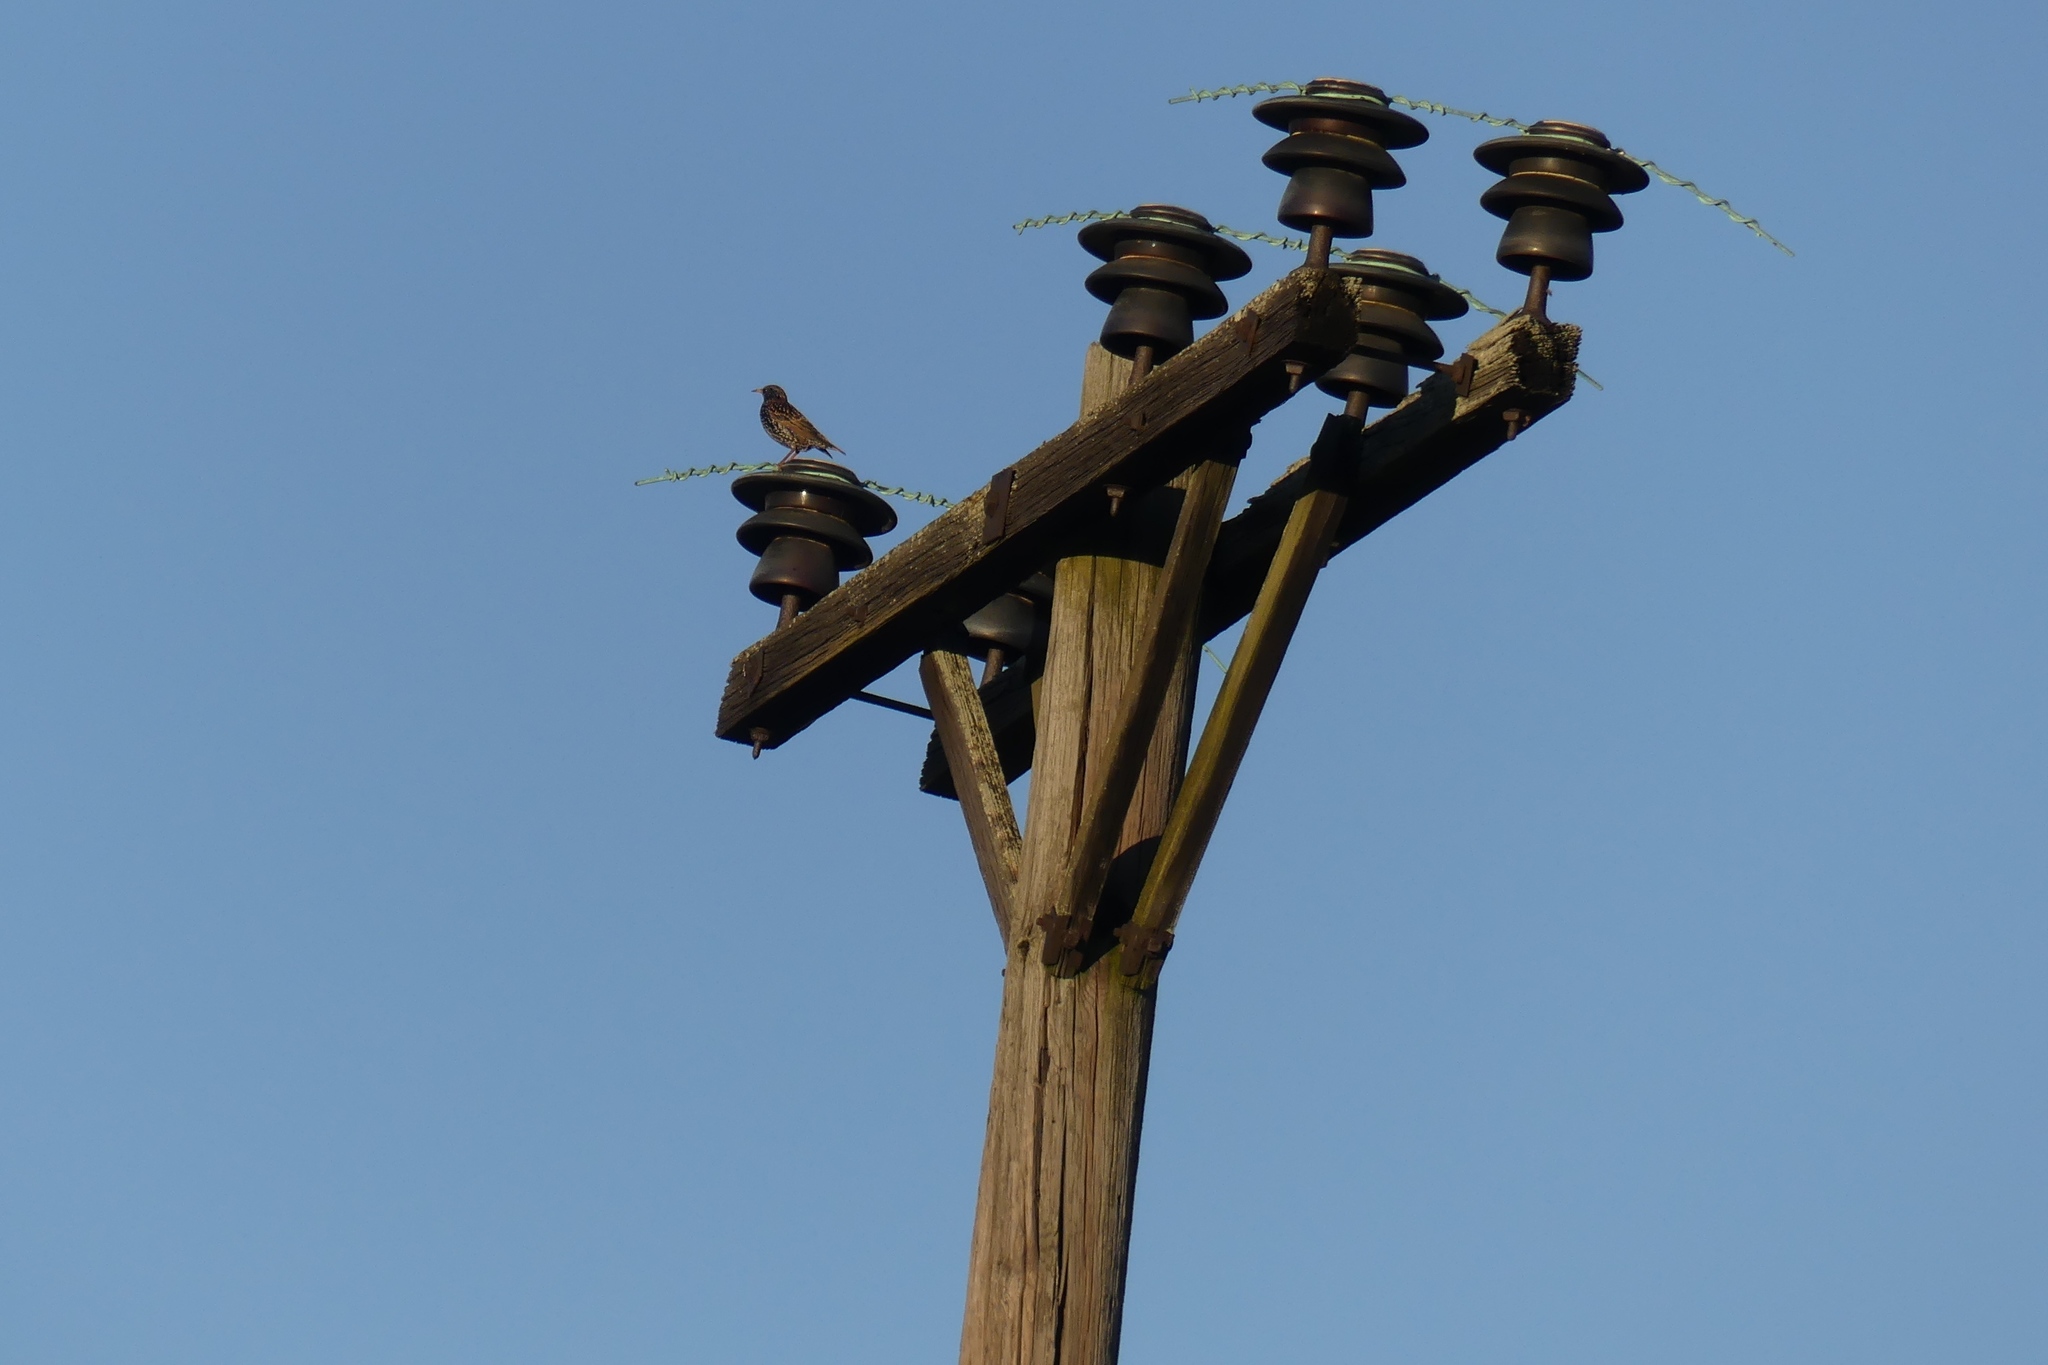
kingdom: Animalia
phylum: Chordata
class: Aves
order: Passeriformes
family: Sturnidae
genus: Sturnus
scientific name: Sturnus vulgaris
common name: Common starling
